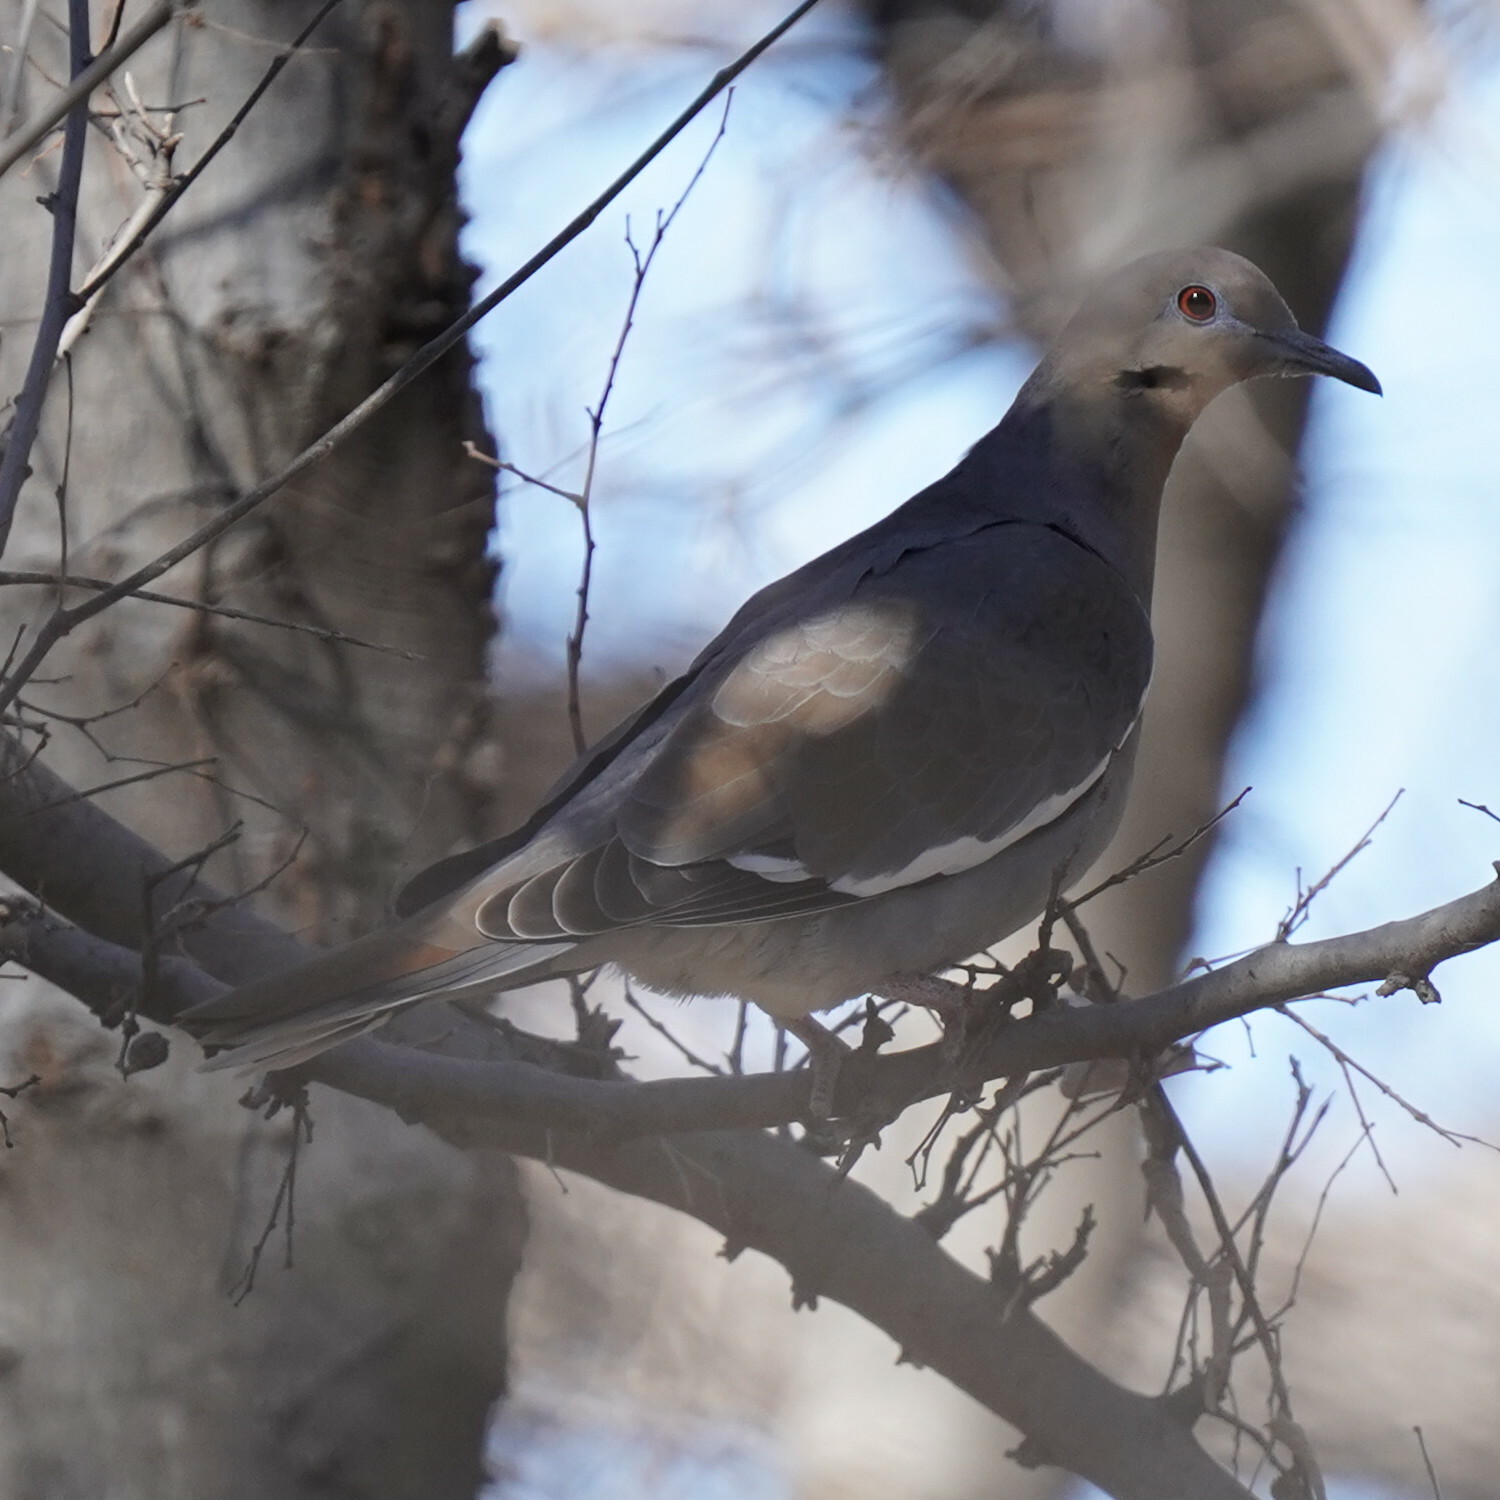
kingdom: Animalia
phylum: Chordata
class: Aves
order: Columbiformes
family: Columbidae
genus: Zenaida
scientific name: Zenaida asiatica
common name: White-winged dove
